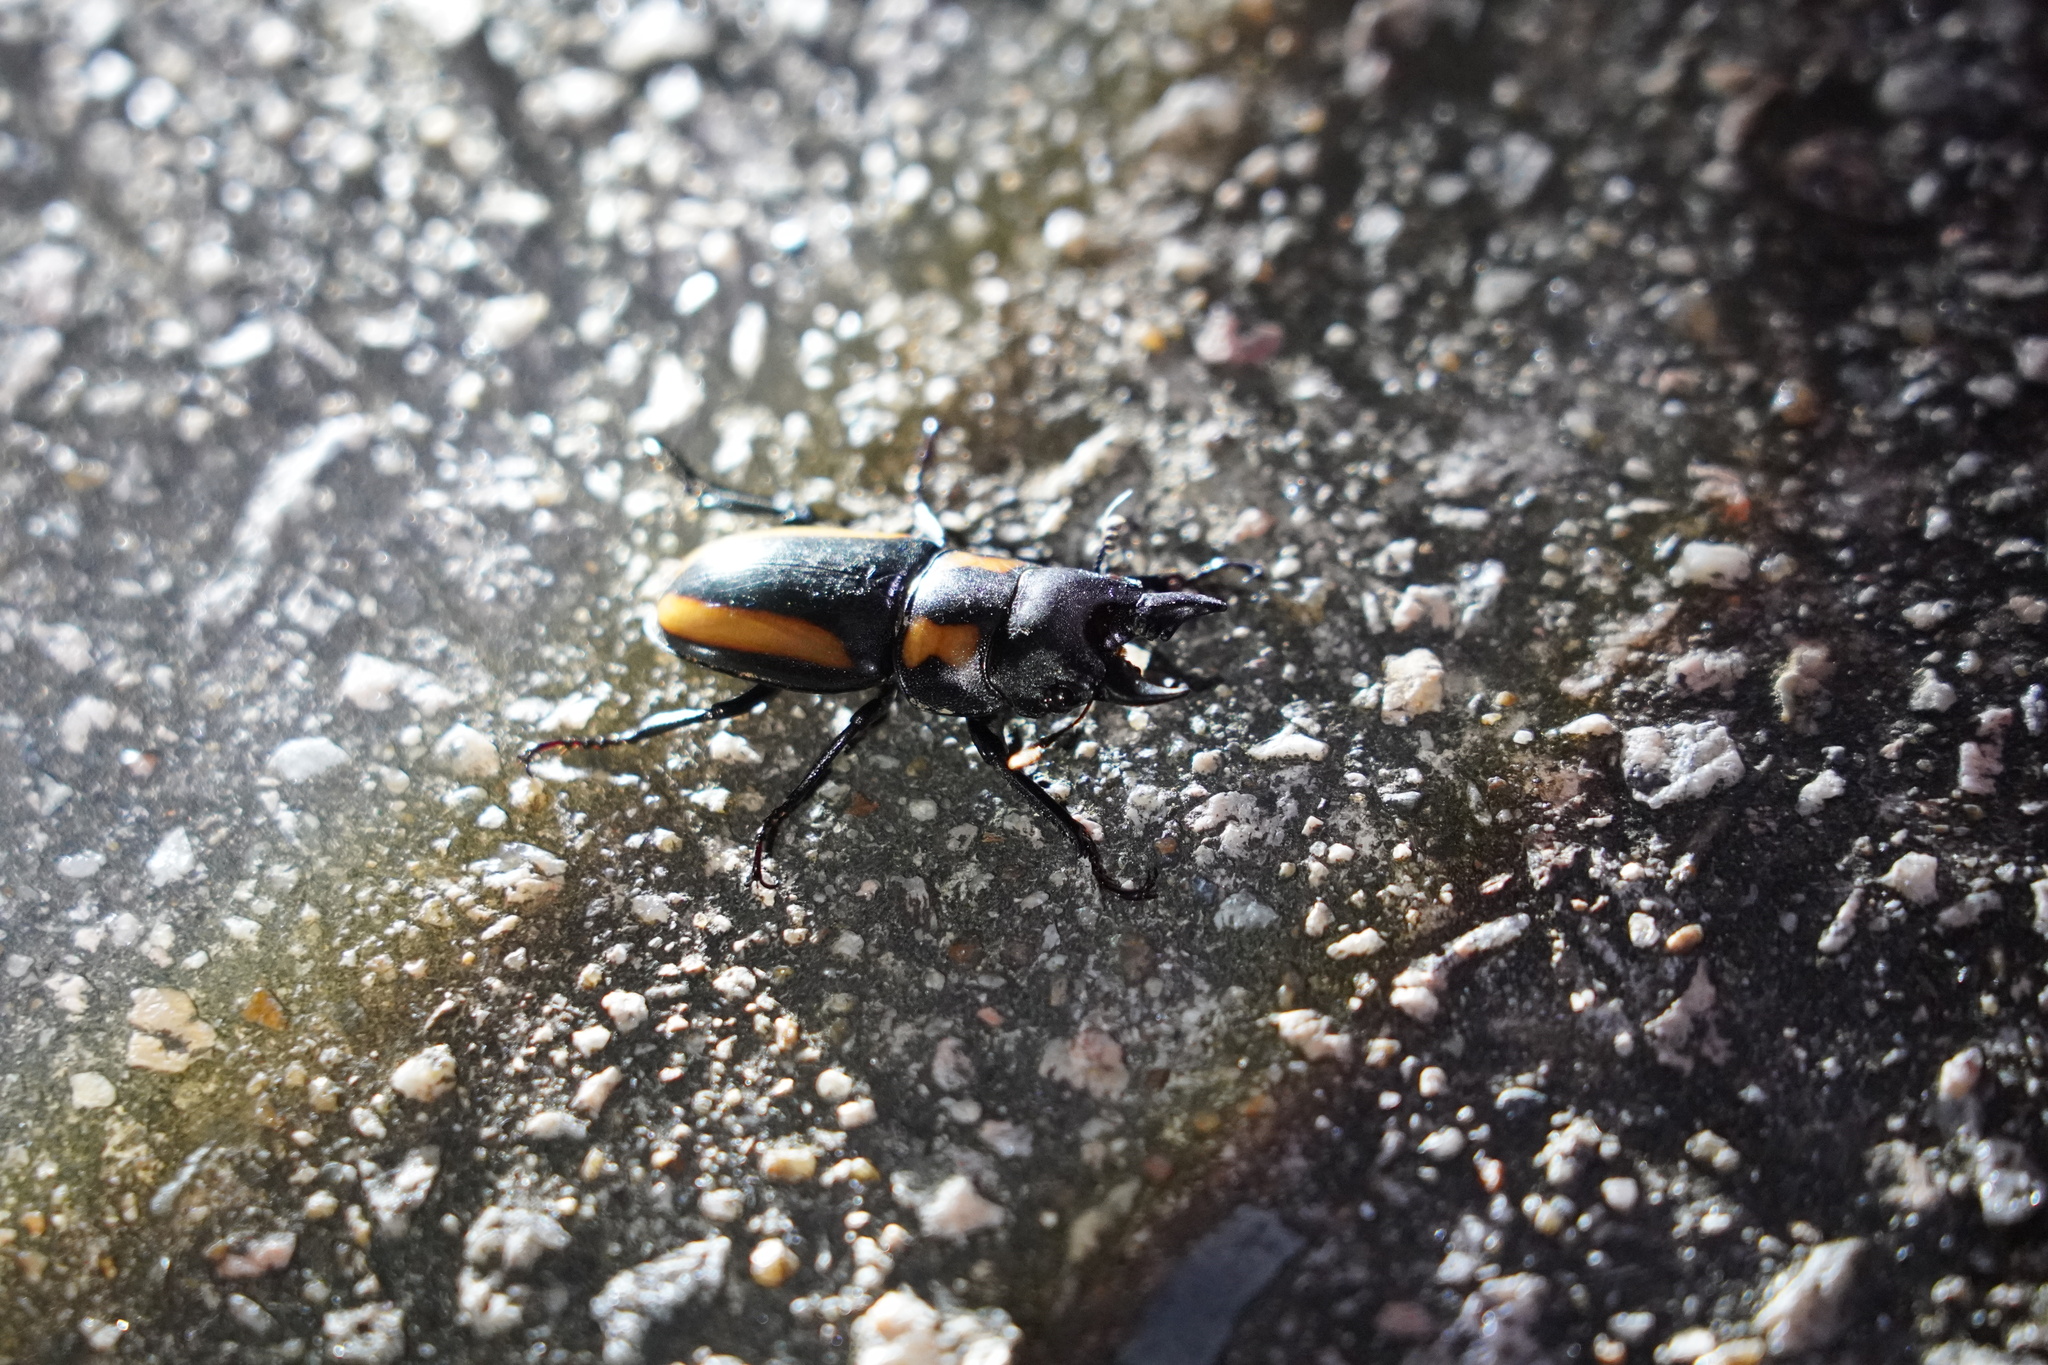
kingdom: Animalia
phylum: Arthropoda
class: Insecta
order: Coleoptera
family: Lucanidae
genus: Prosopocoilus
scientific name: Prosopocoilus biplagiatus
